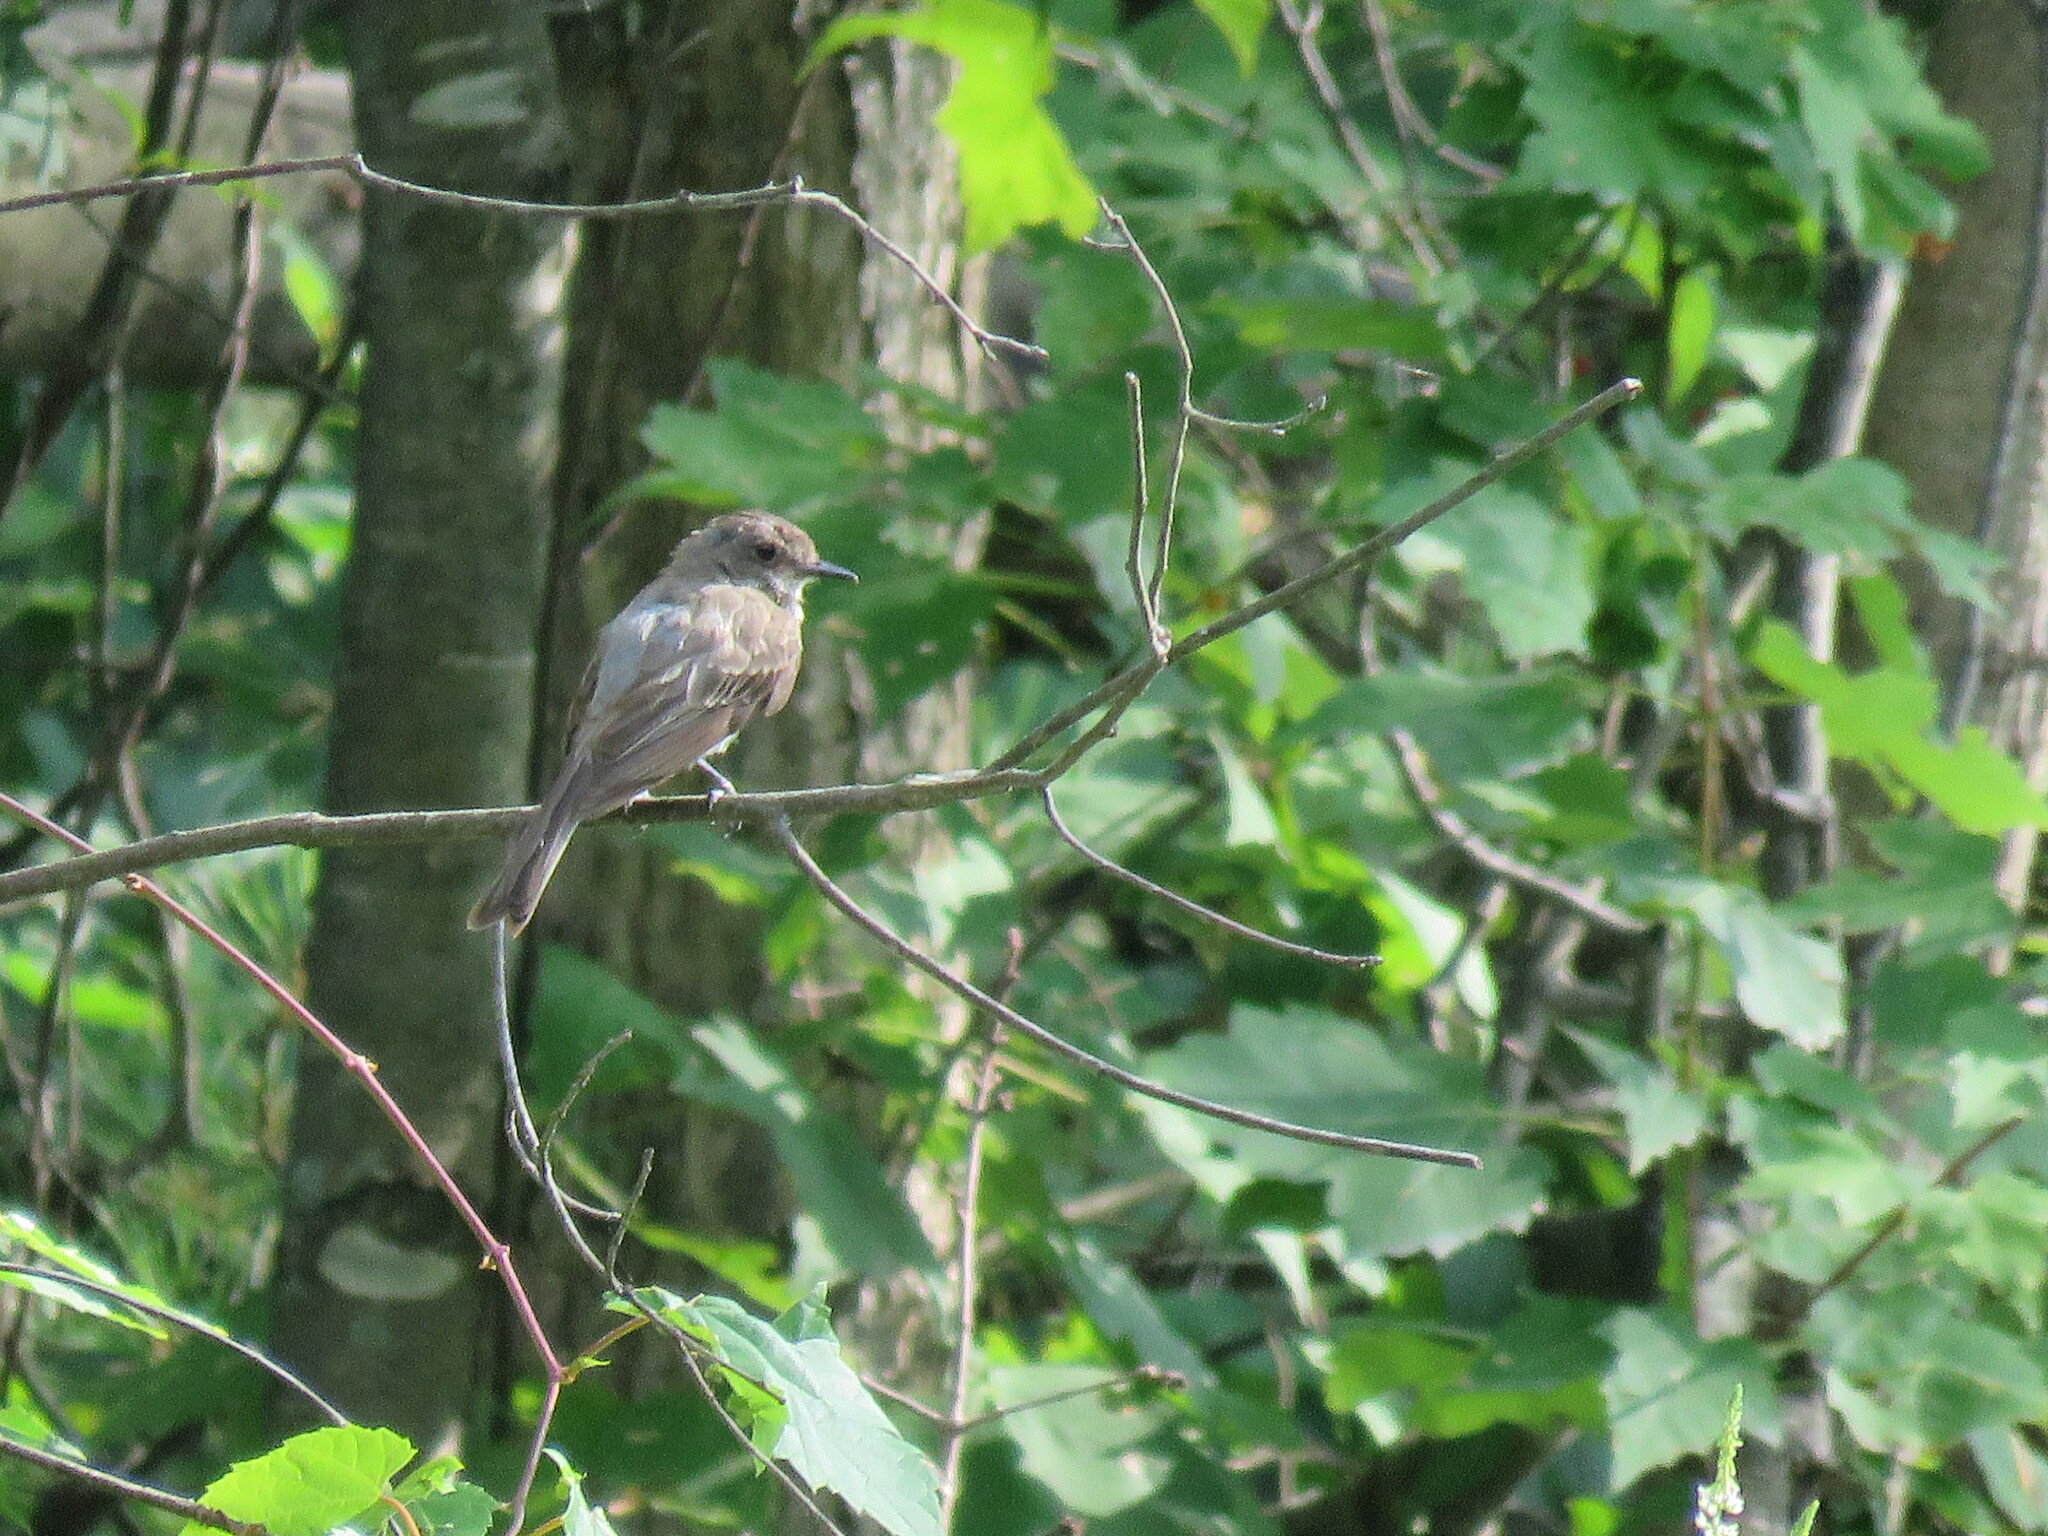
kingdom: Animalia
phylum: Chordata
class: Aves
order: Passeriformes
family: Tyrannidae
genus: Sayornis
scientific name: Sayornis phoebe
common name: Eastern phoebe
